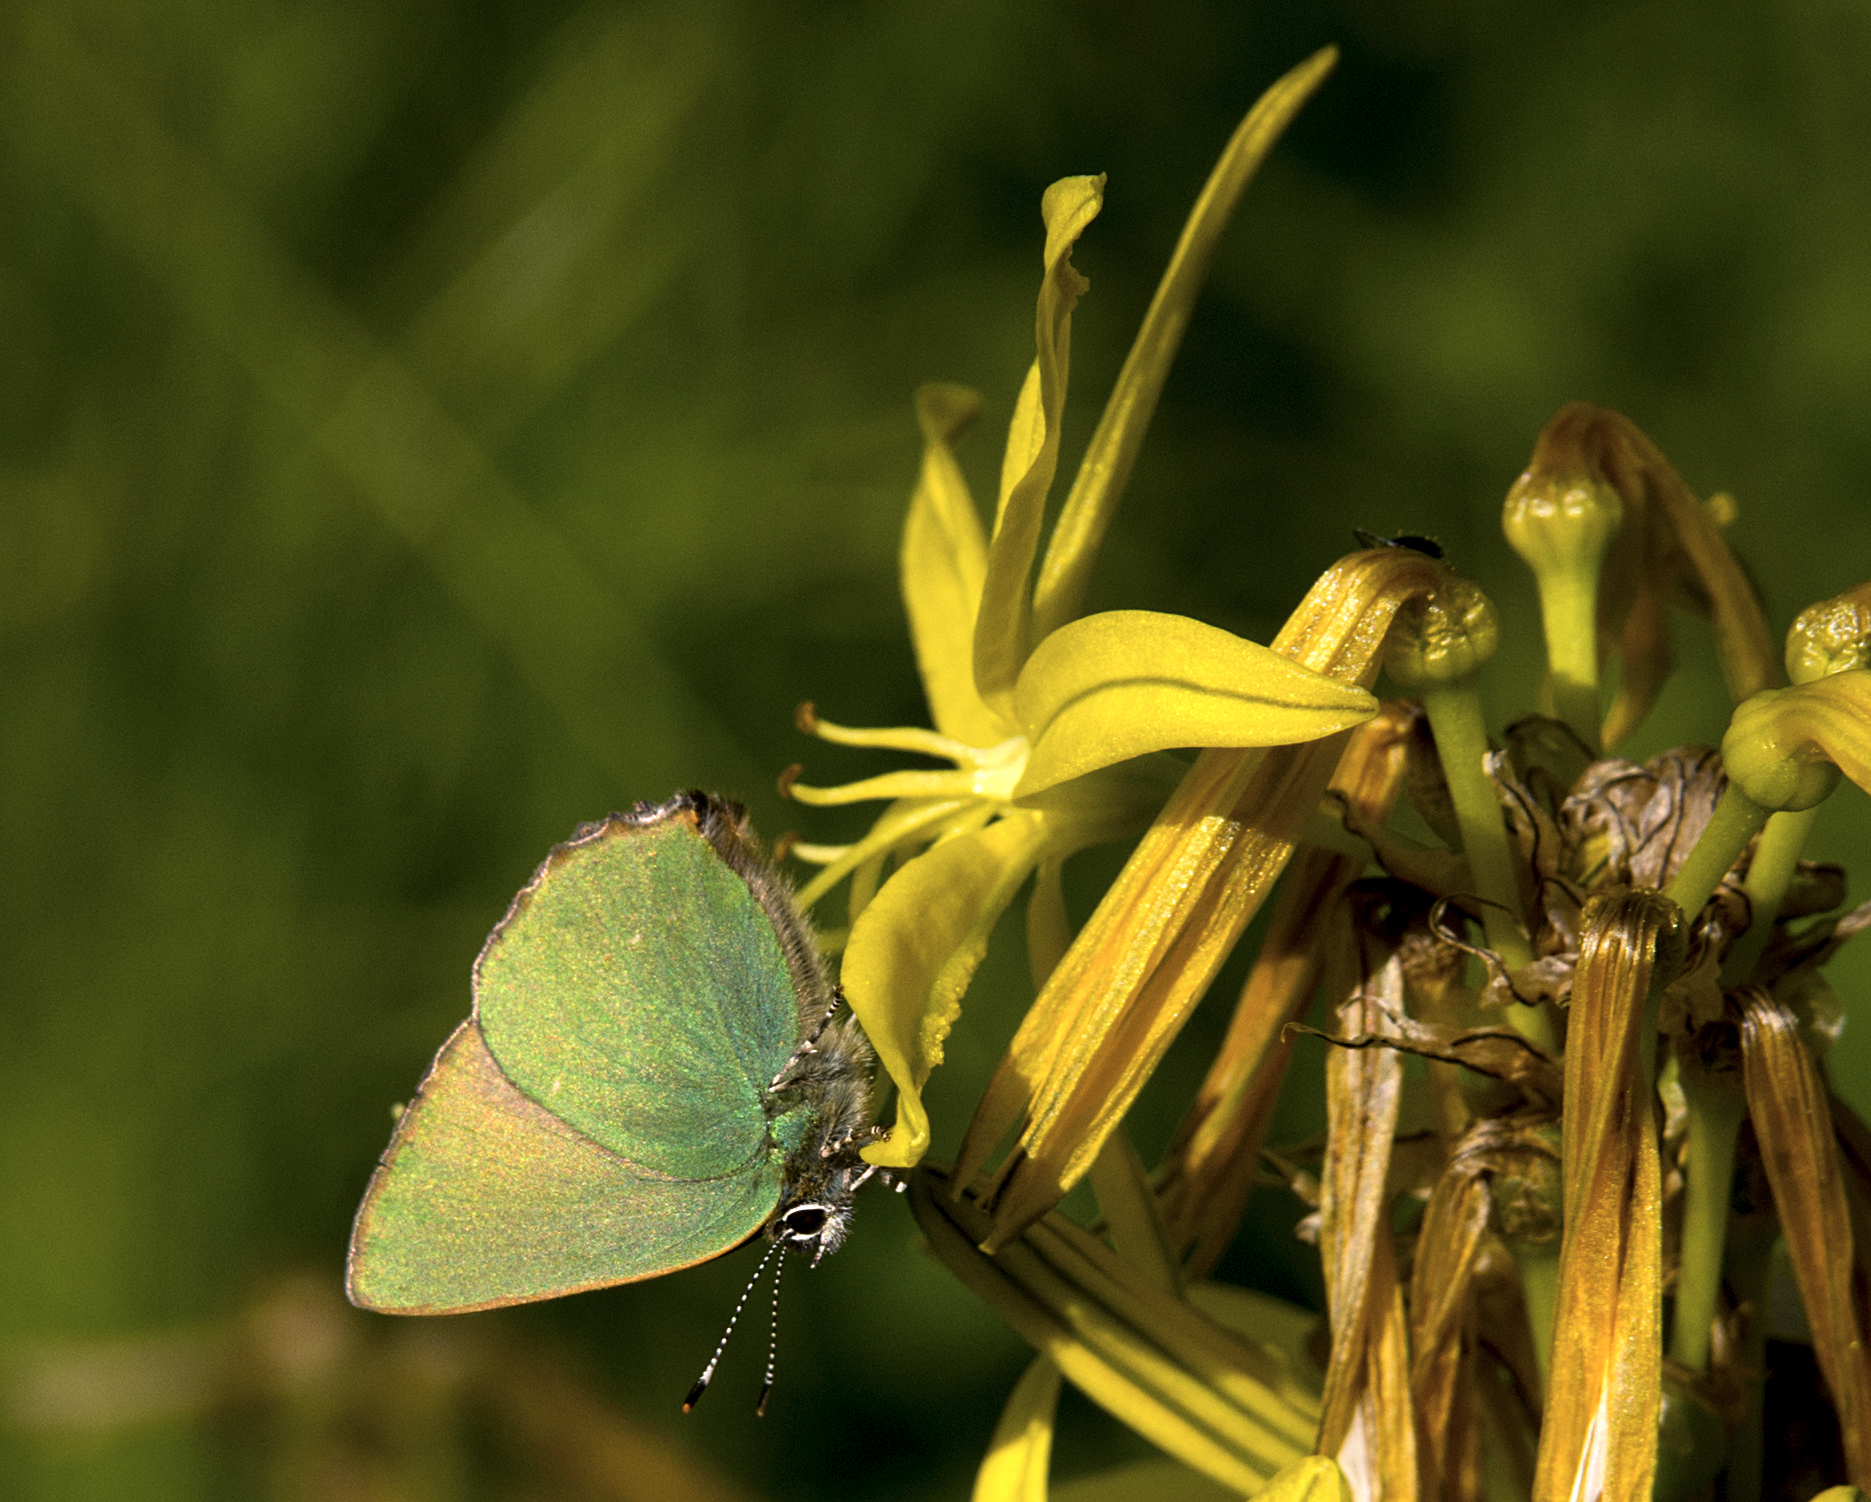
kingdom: Animalia
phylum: Arthropoda
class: Insecta
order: Lepidoptera
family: Lycaenidae
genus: Callophrys
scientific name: Callophrys rubi
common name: Green hairstreak
